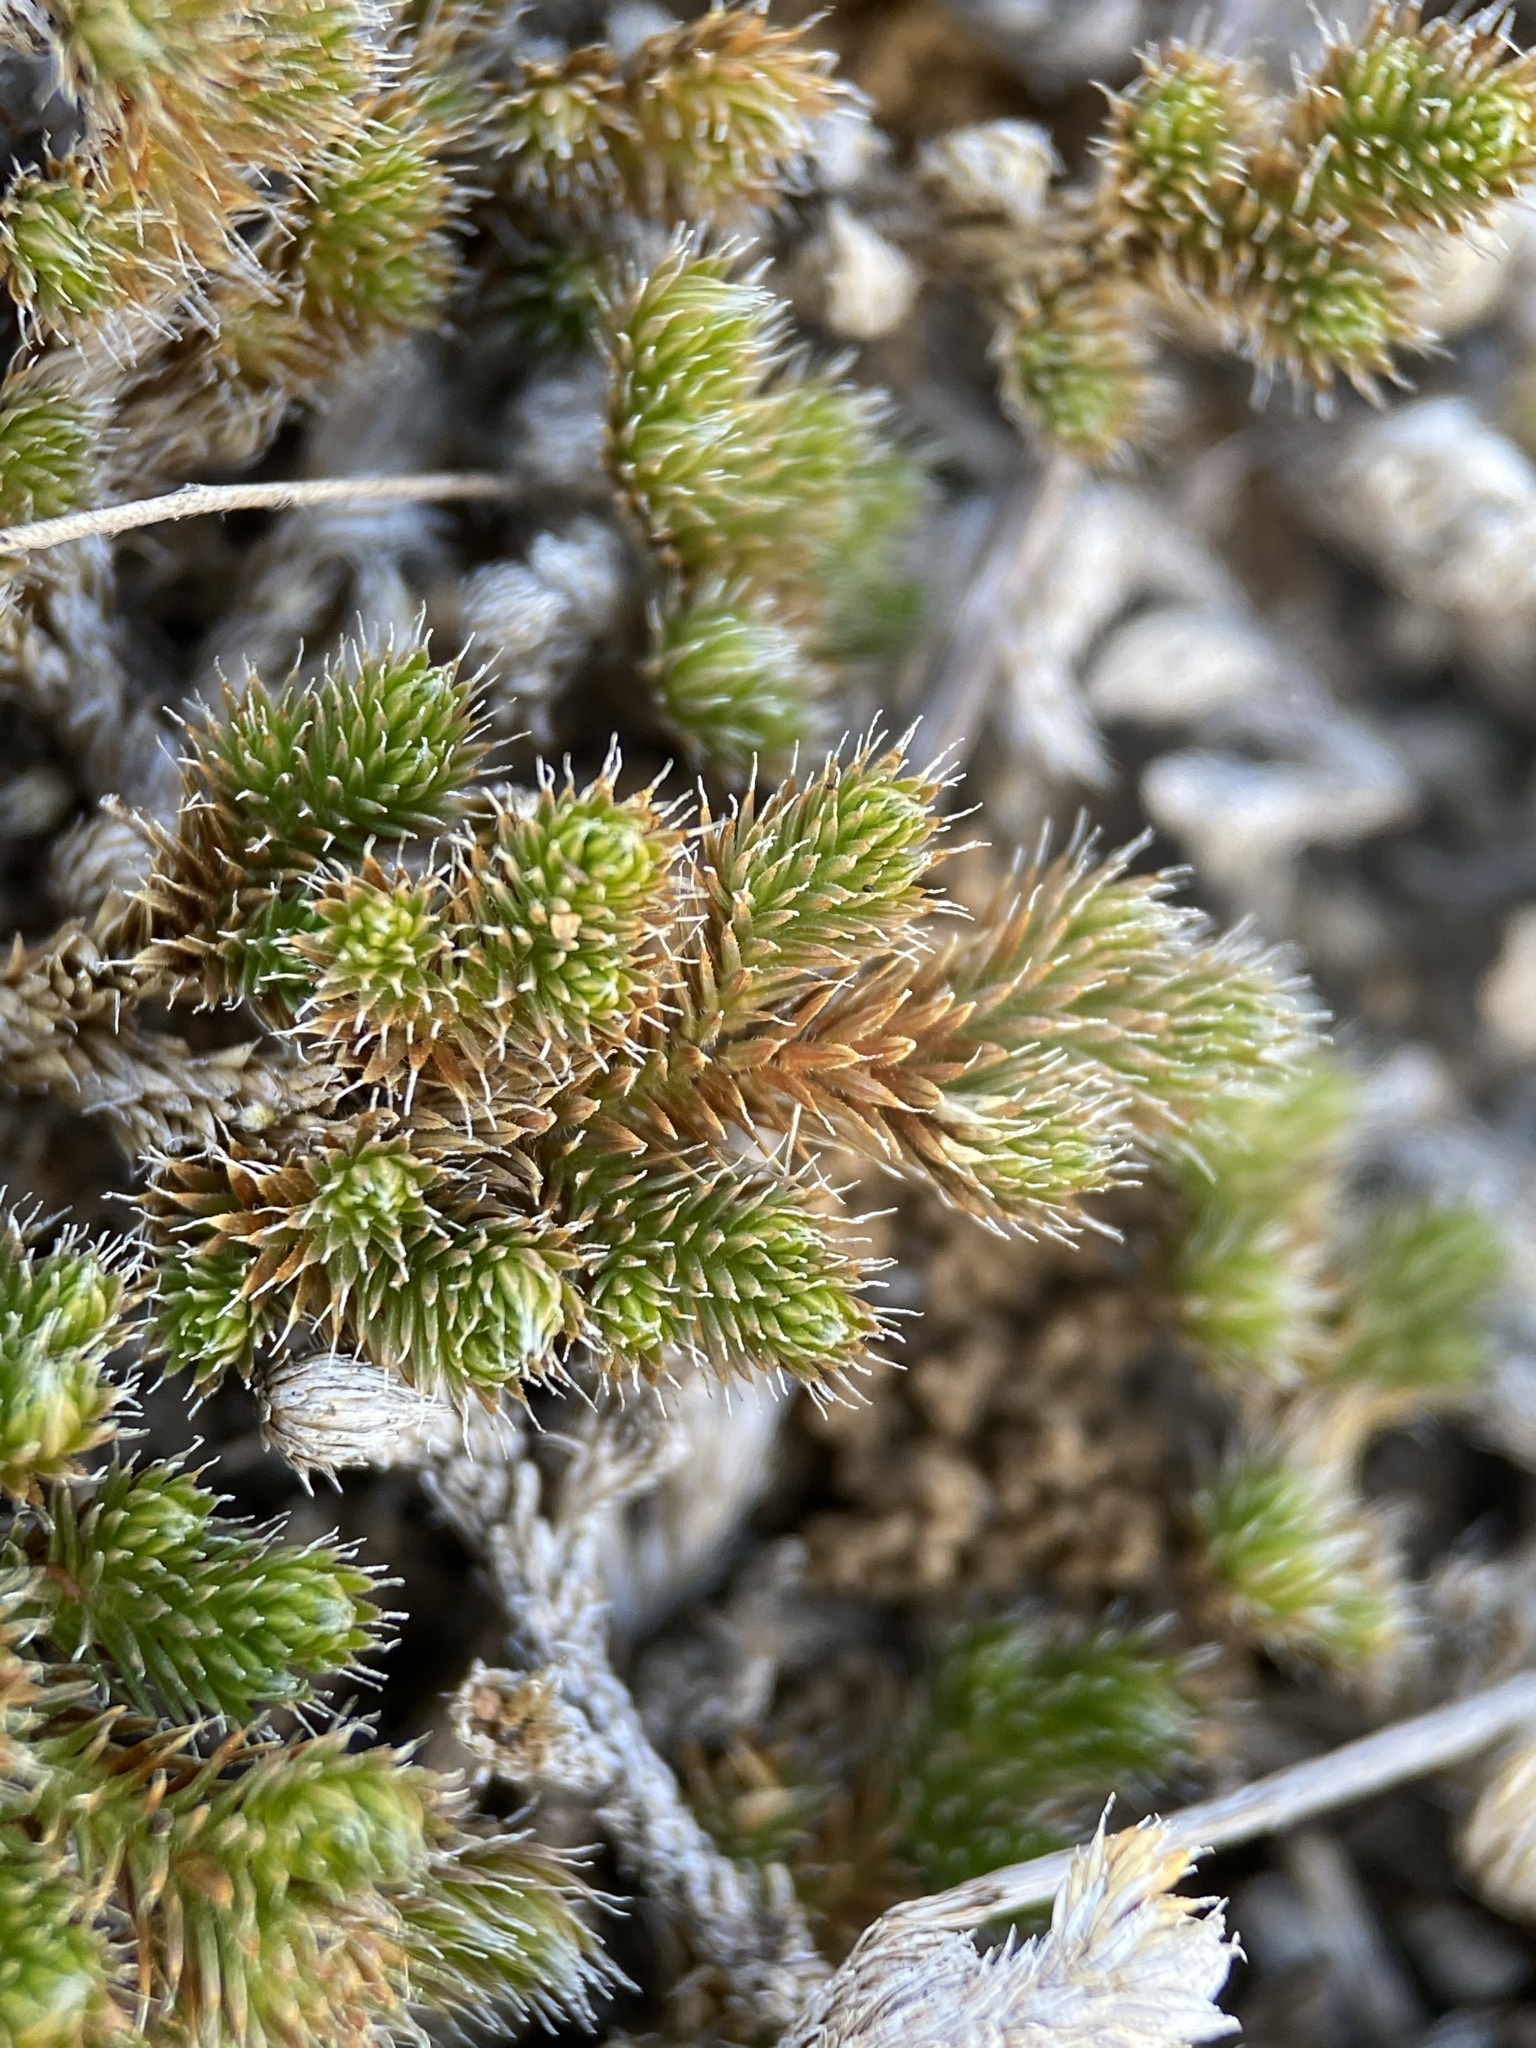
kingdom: Plantae
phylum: Tracheophyta
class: Lycopodiopsida
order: Selaginellales
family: Selaginellaceae
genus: Selaginella
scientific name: Selaginella peruviana
